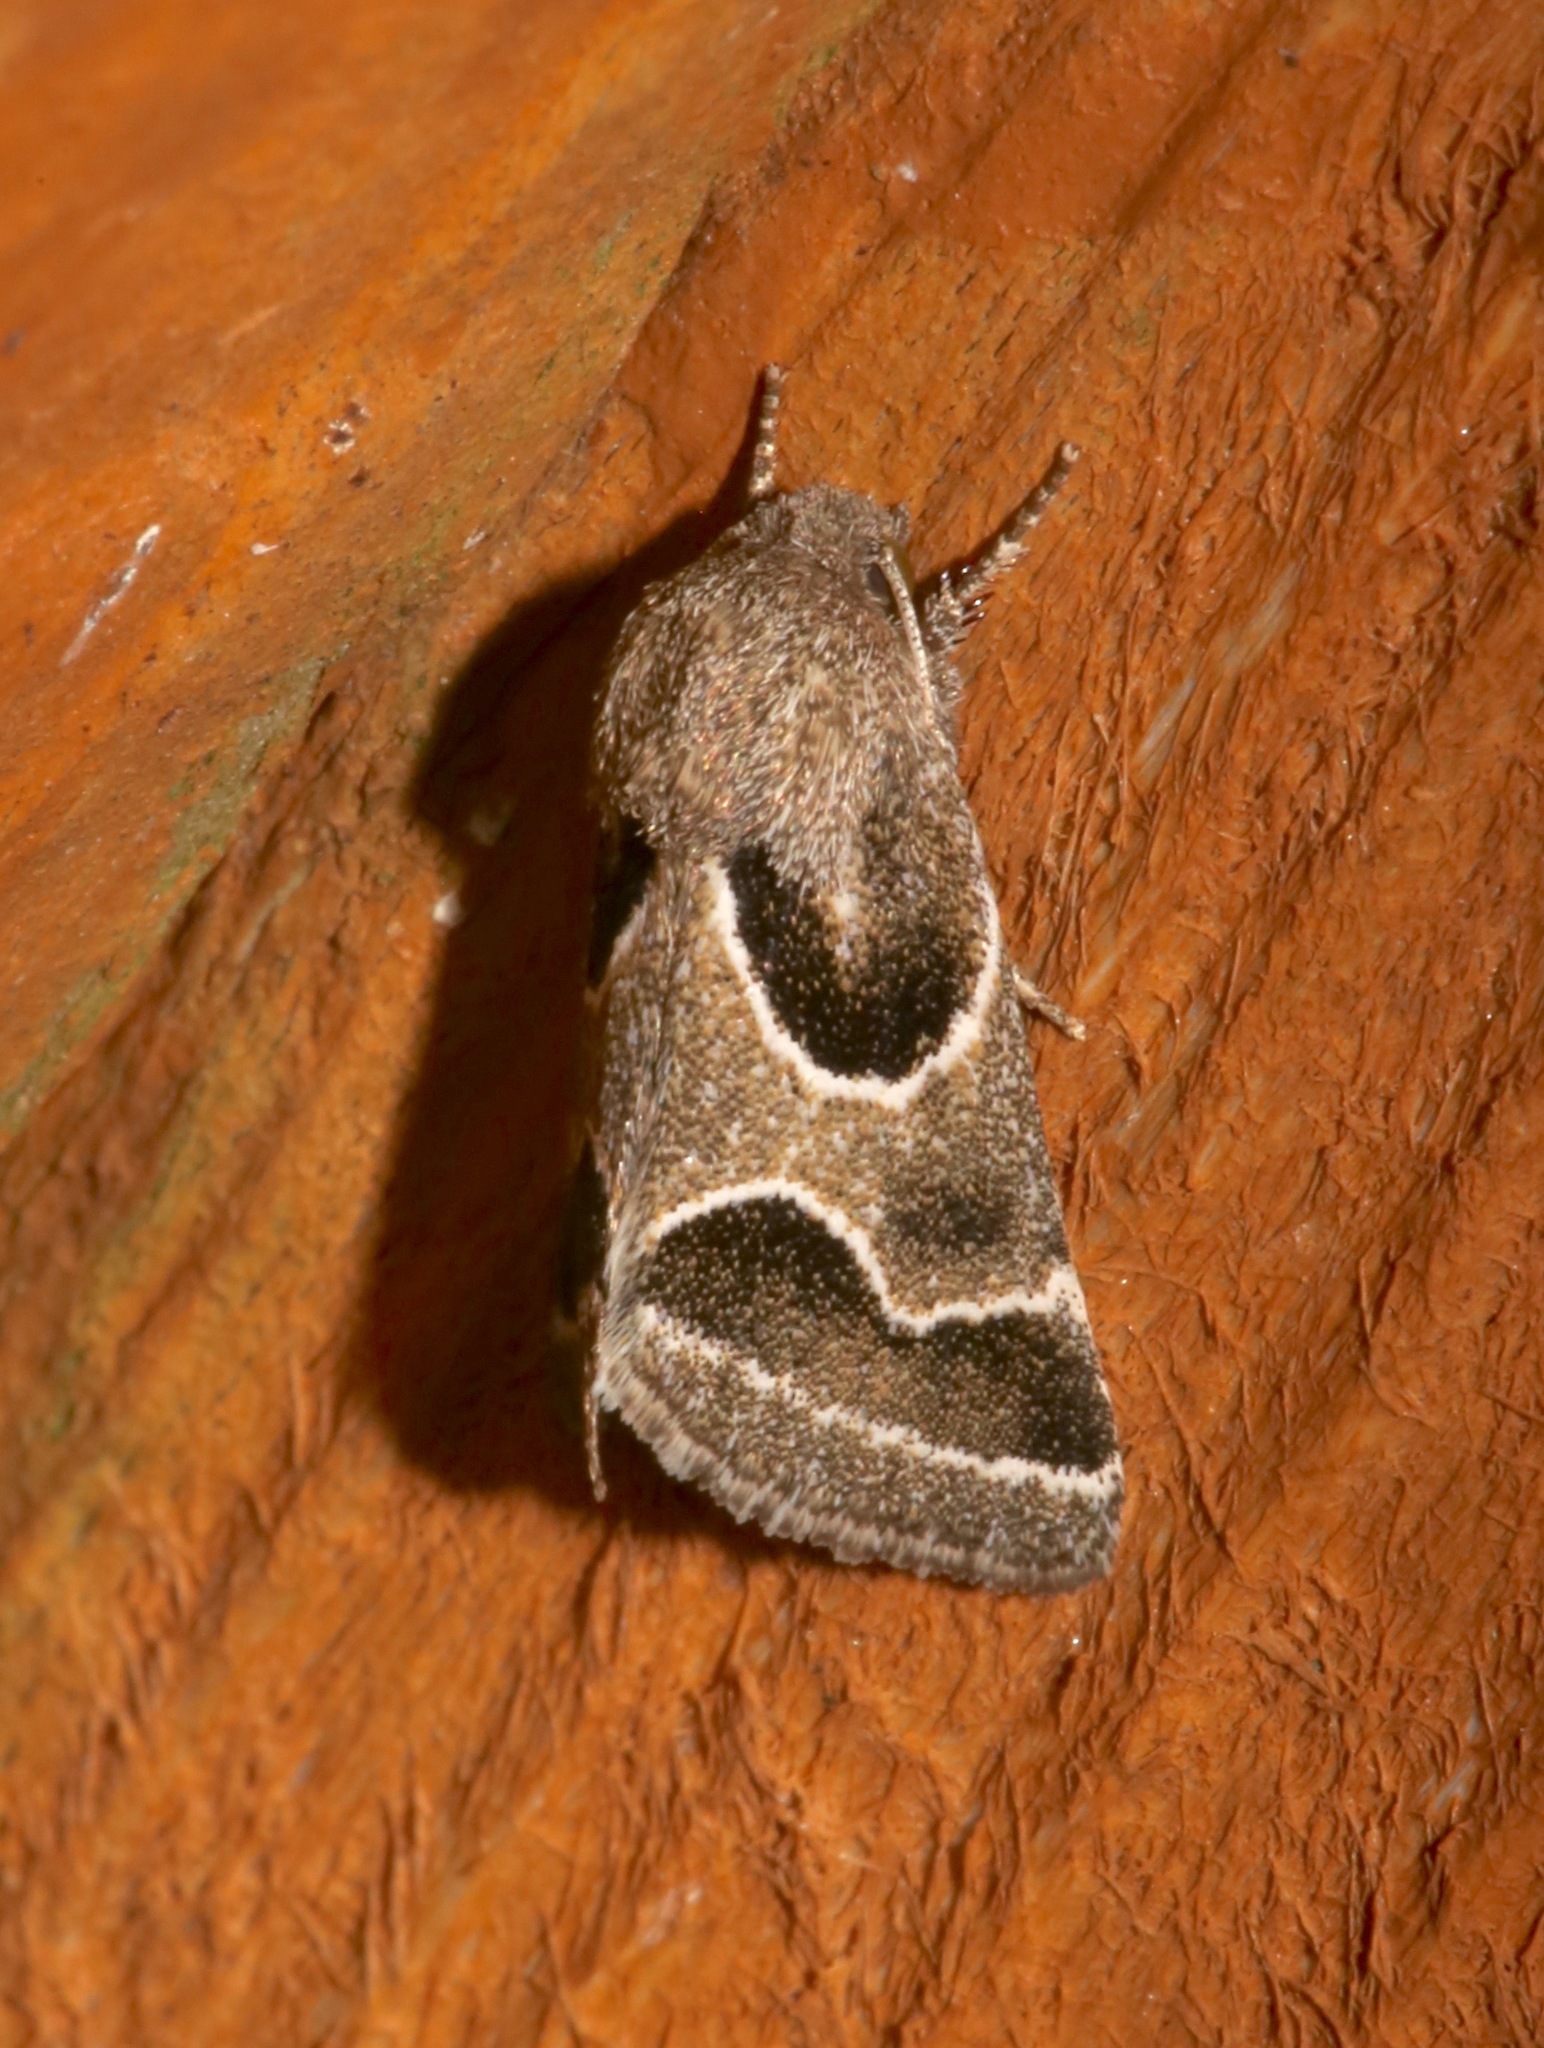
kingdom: Animalia
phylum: Arthropoda
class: Insecta
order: Lepidoptera
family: Noctuidae
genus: Schinia
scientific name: Schinia rivulosa
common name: Scarce meal-moth
